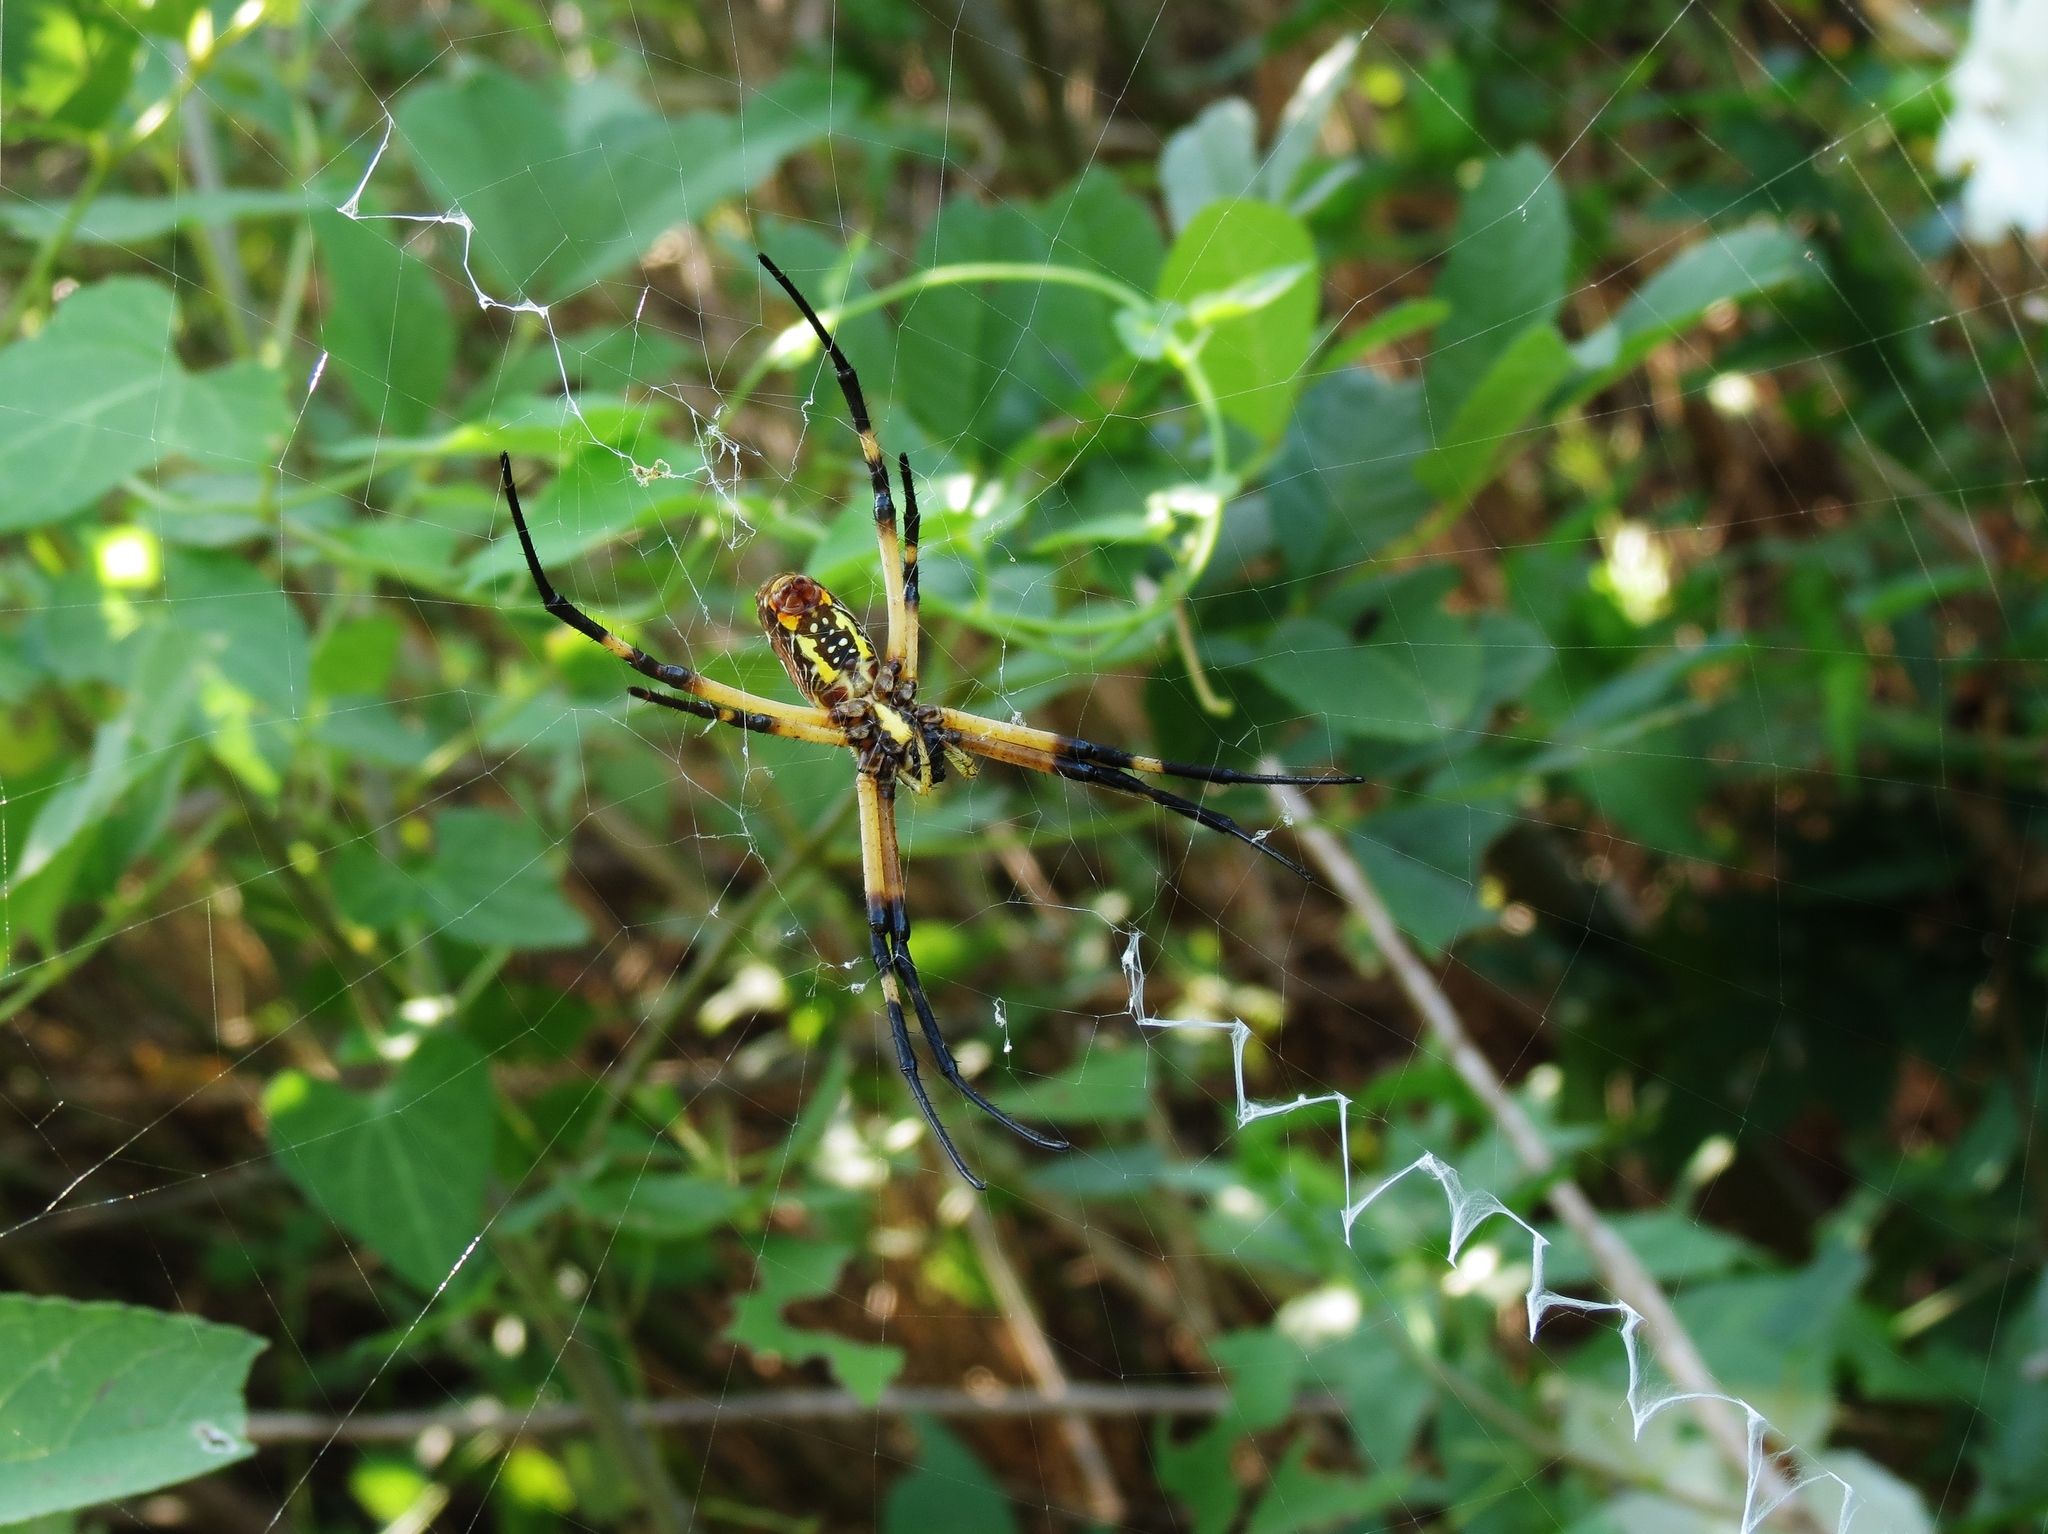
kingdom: Animalia
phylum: Arthropoda
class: Arachnida
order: Araneae
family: Araneidae
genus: Argiope
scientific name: Argiope aurantia
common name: Orb weavers
